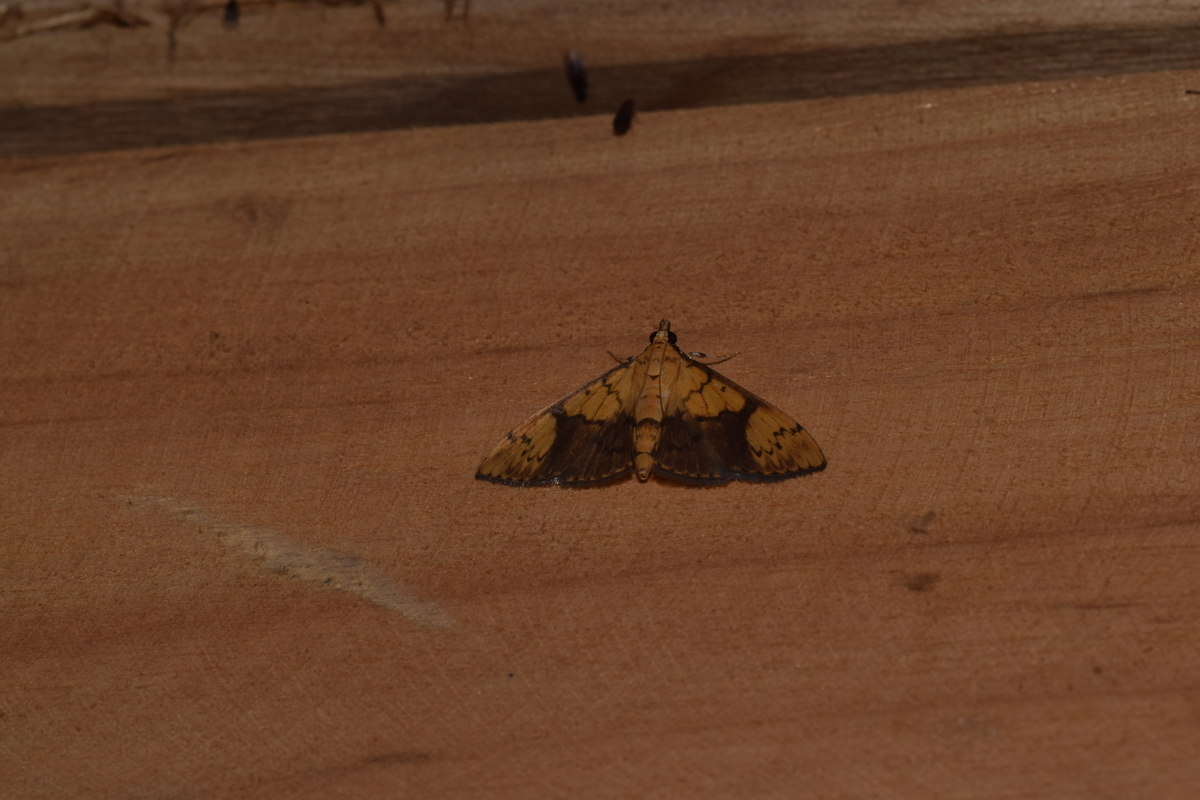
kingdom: Animalia
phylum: Arthropoda
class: Insecta
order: Lepidoptera
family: Crambidae
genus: Patania
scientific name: Patania
